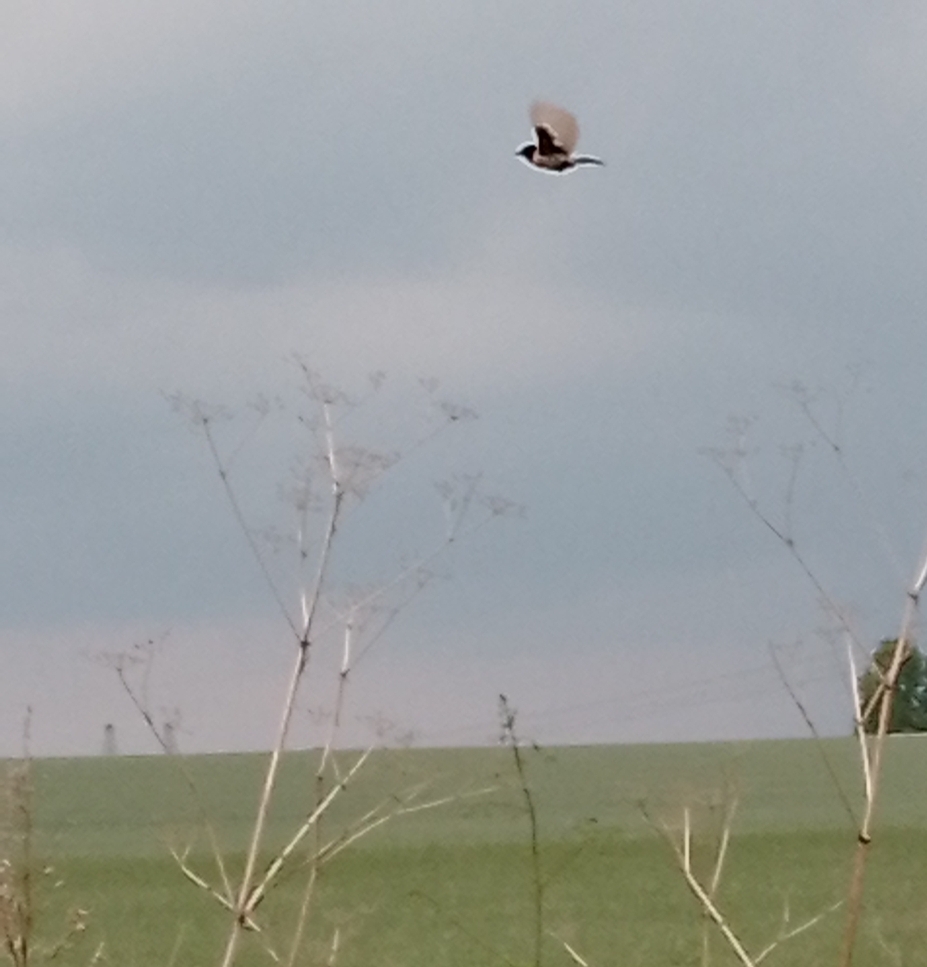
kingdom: Animalia
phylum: Chordata
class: Aves
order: Passeriformes
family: Muscicapidae
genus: Saxicola
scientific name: Saxicola maurus
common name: Siberian stonechat
